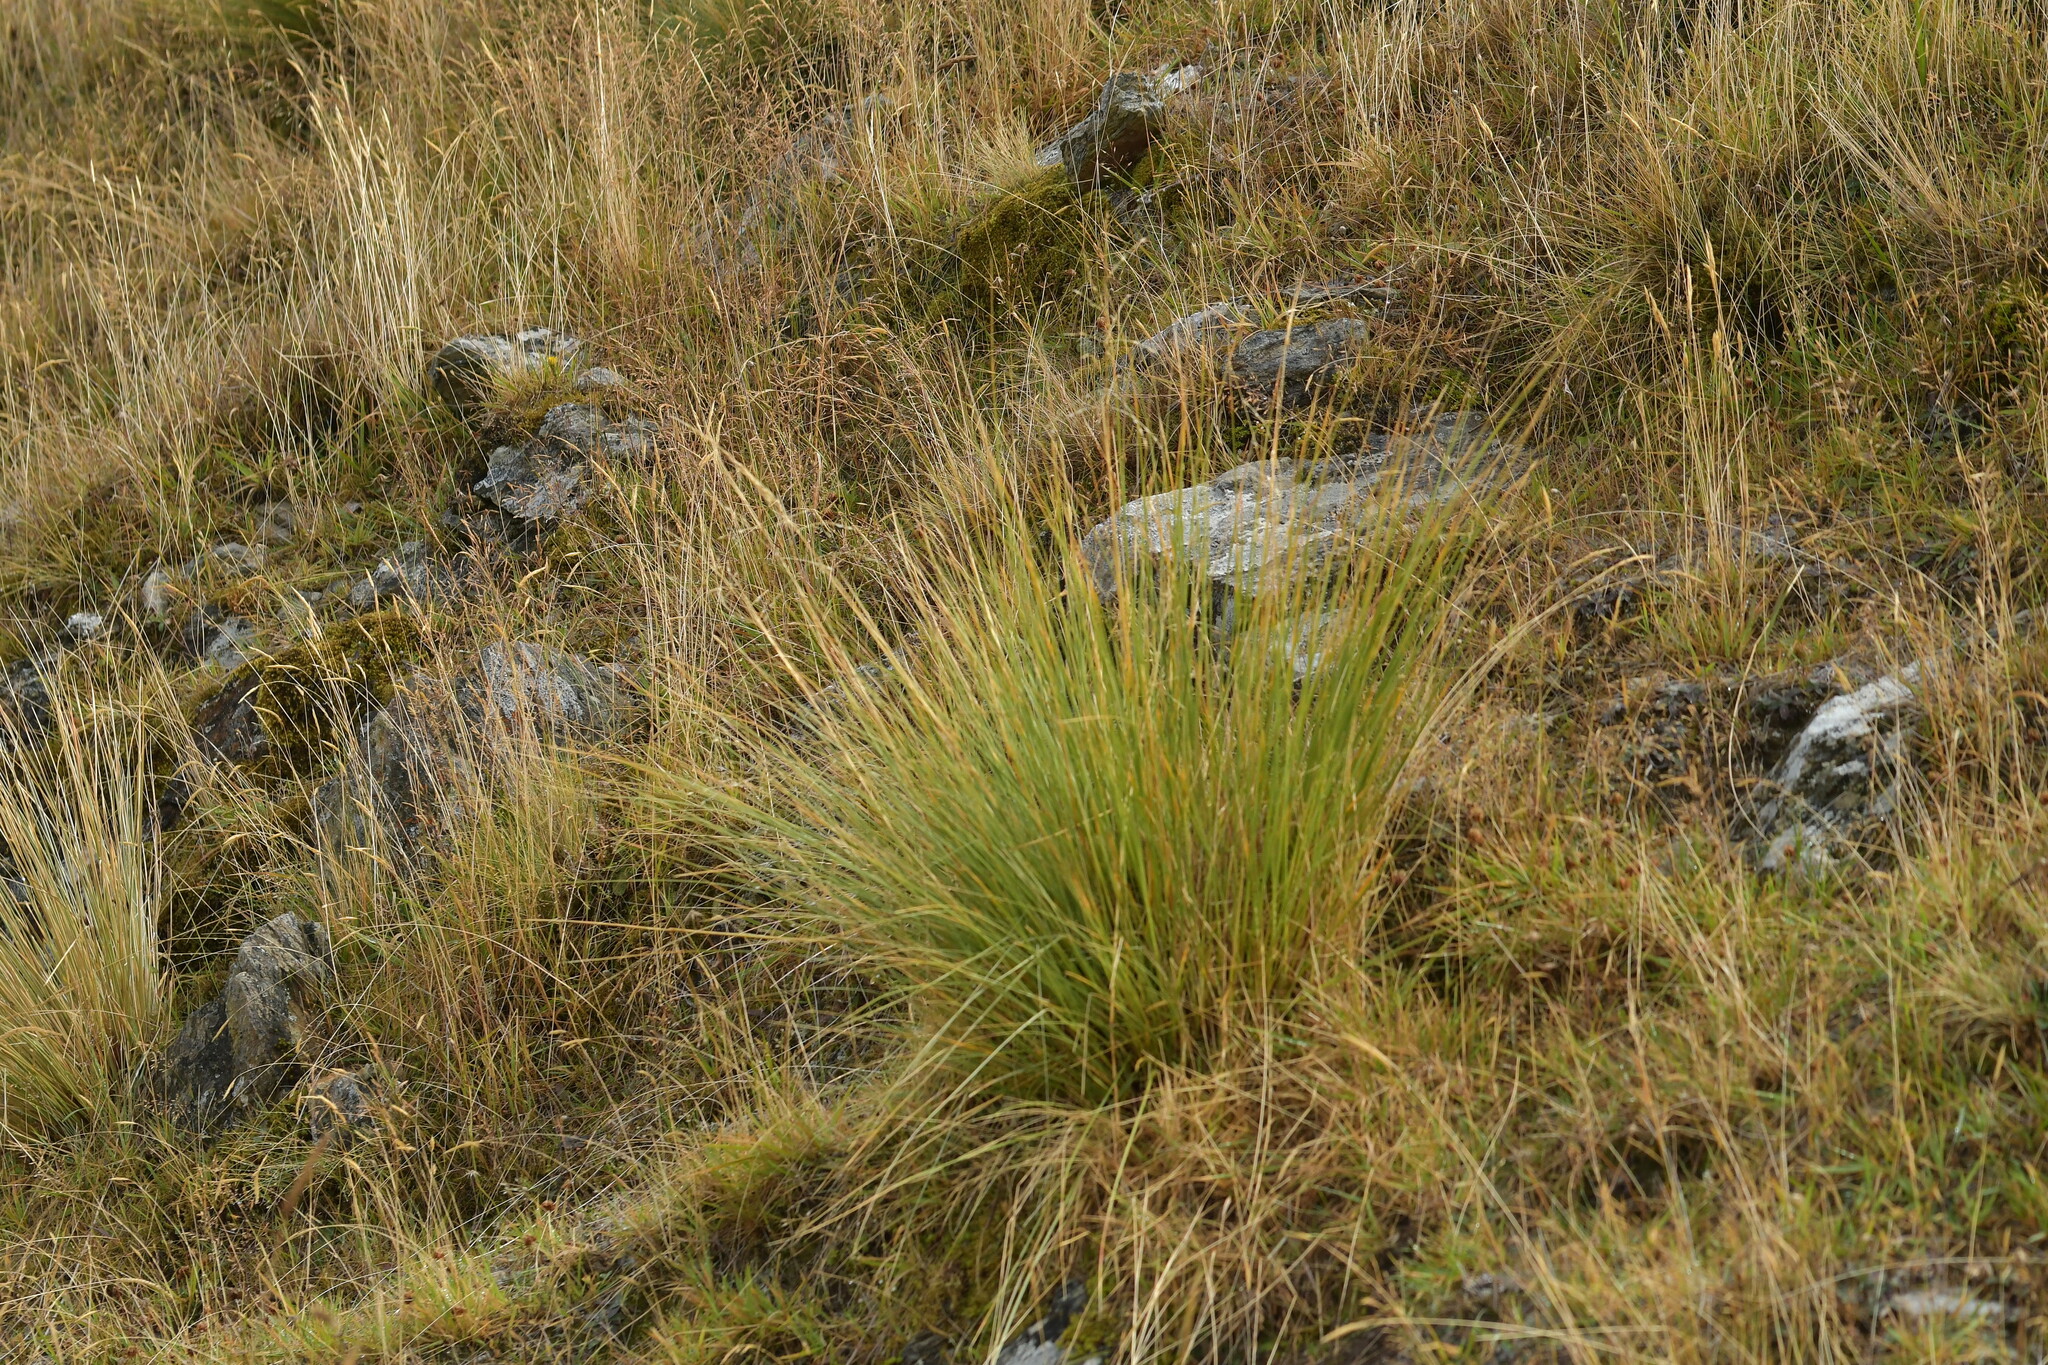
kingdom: Plantae
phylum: Tracheophyta
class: Liliopsida
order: Poales
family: Poaceae
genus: Chionochloa
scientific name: Chionochloa rigida
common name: Narrow leaved snow tussock
